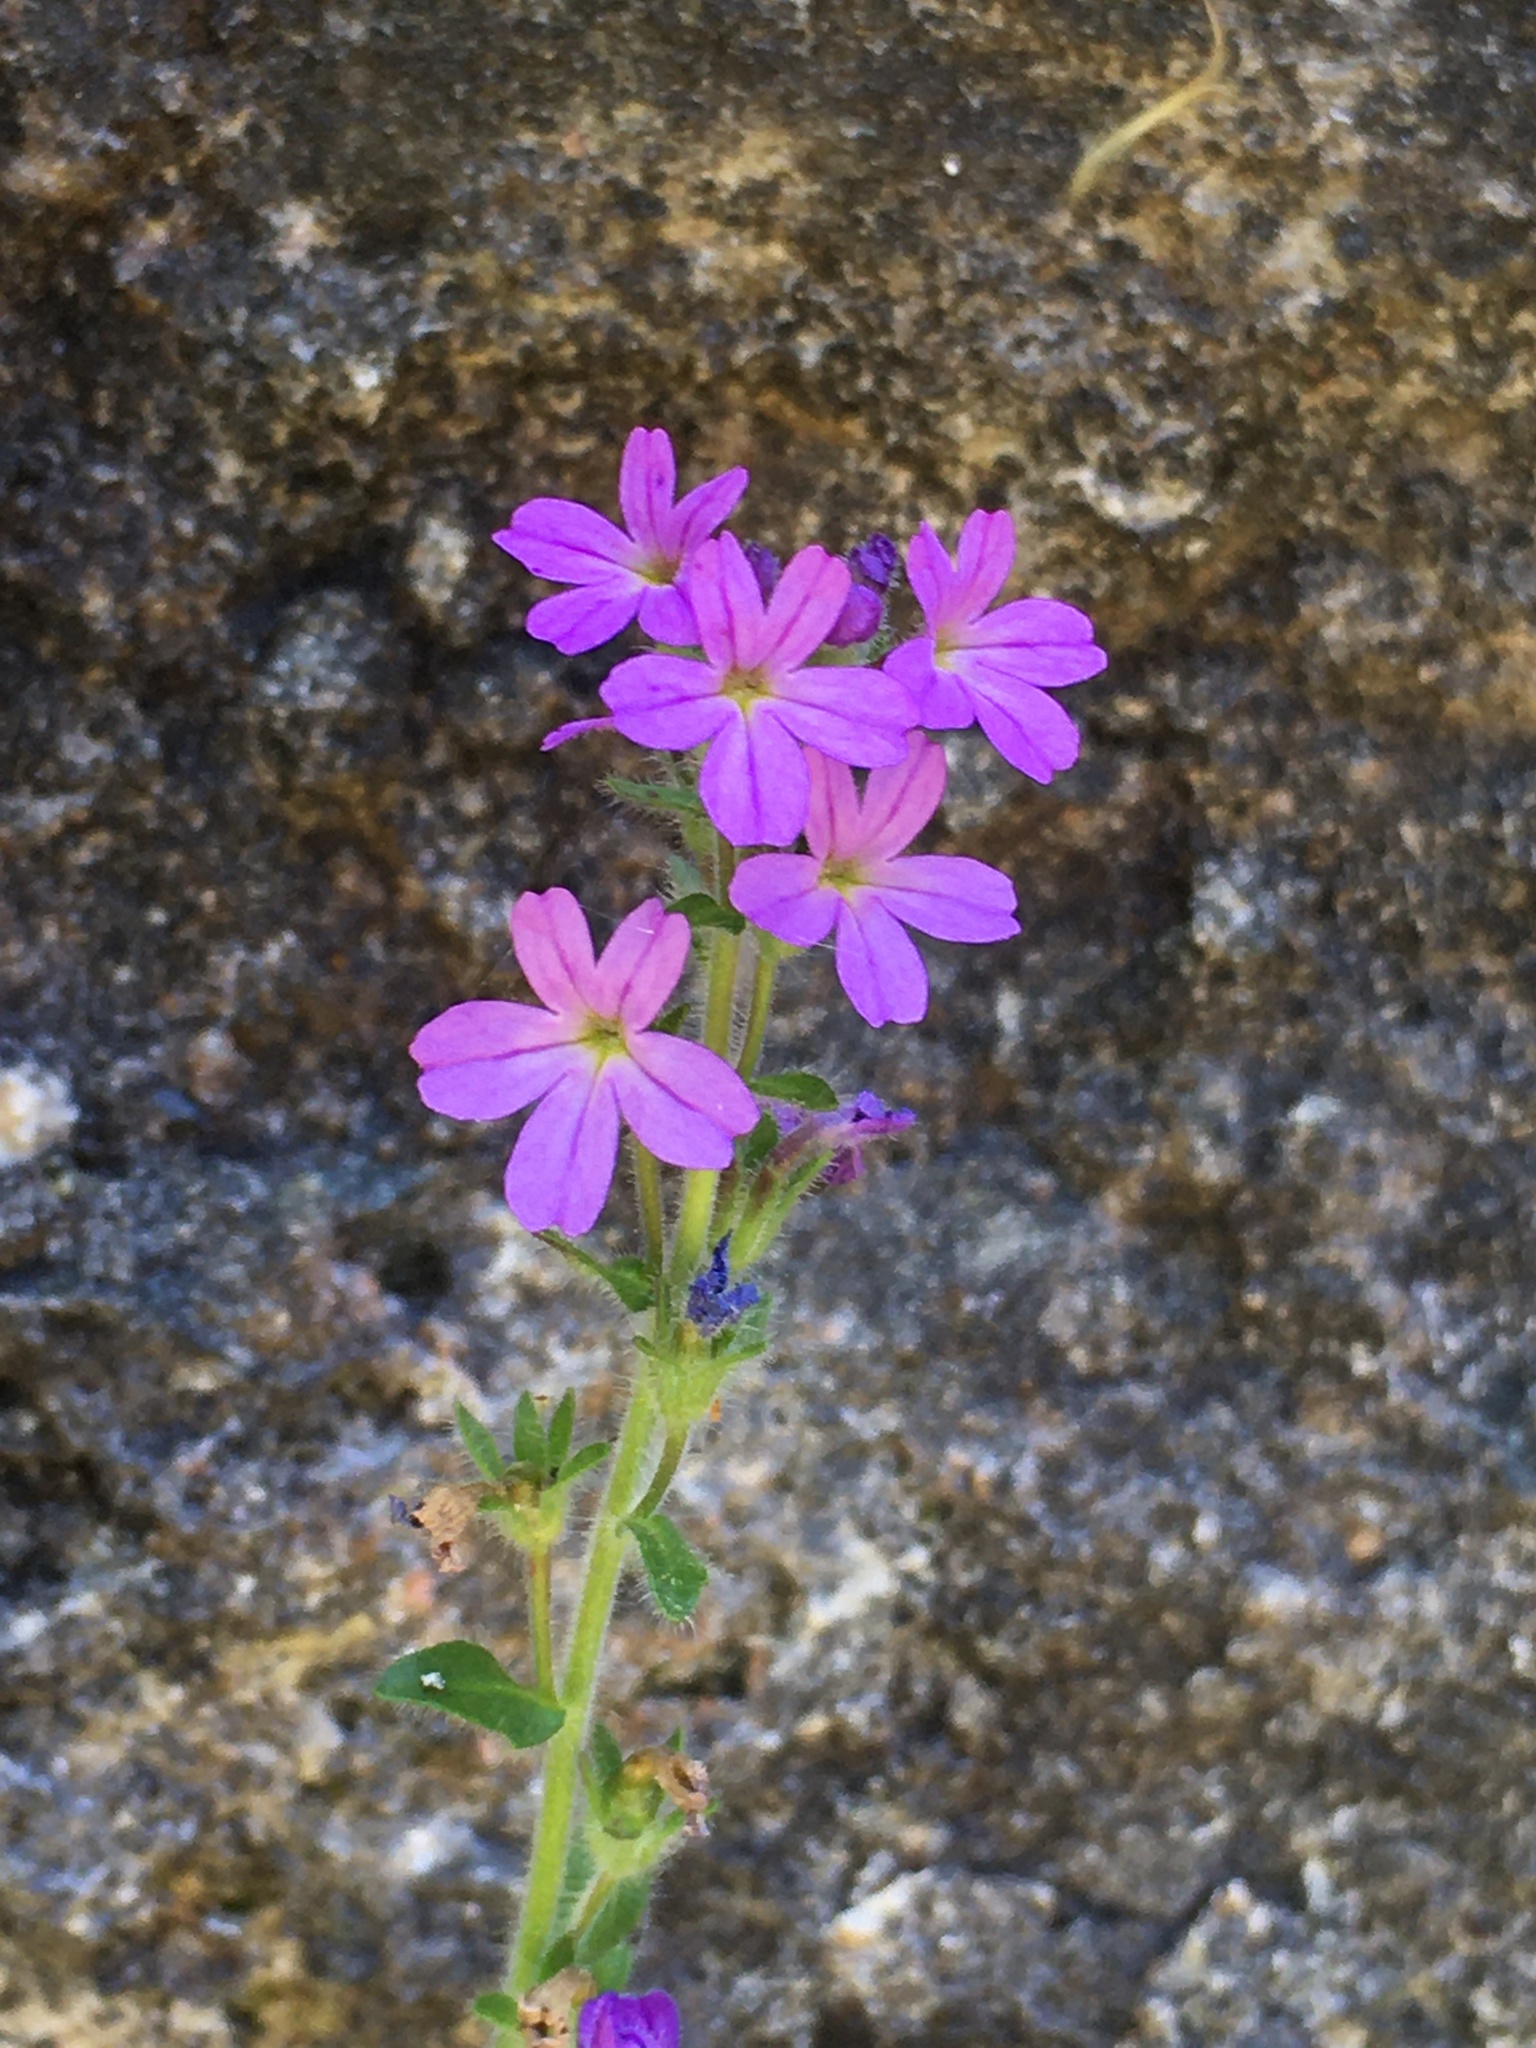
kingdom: Plantae
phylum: Tracheophyta
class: Magnoliopsida
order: Lamiales
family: Plantaginaceae
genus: Erinus
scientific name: Erinus alpinus
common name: Fairy foxglove
